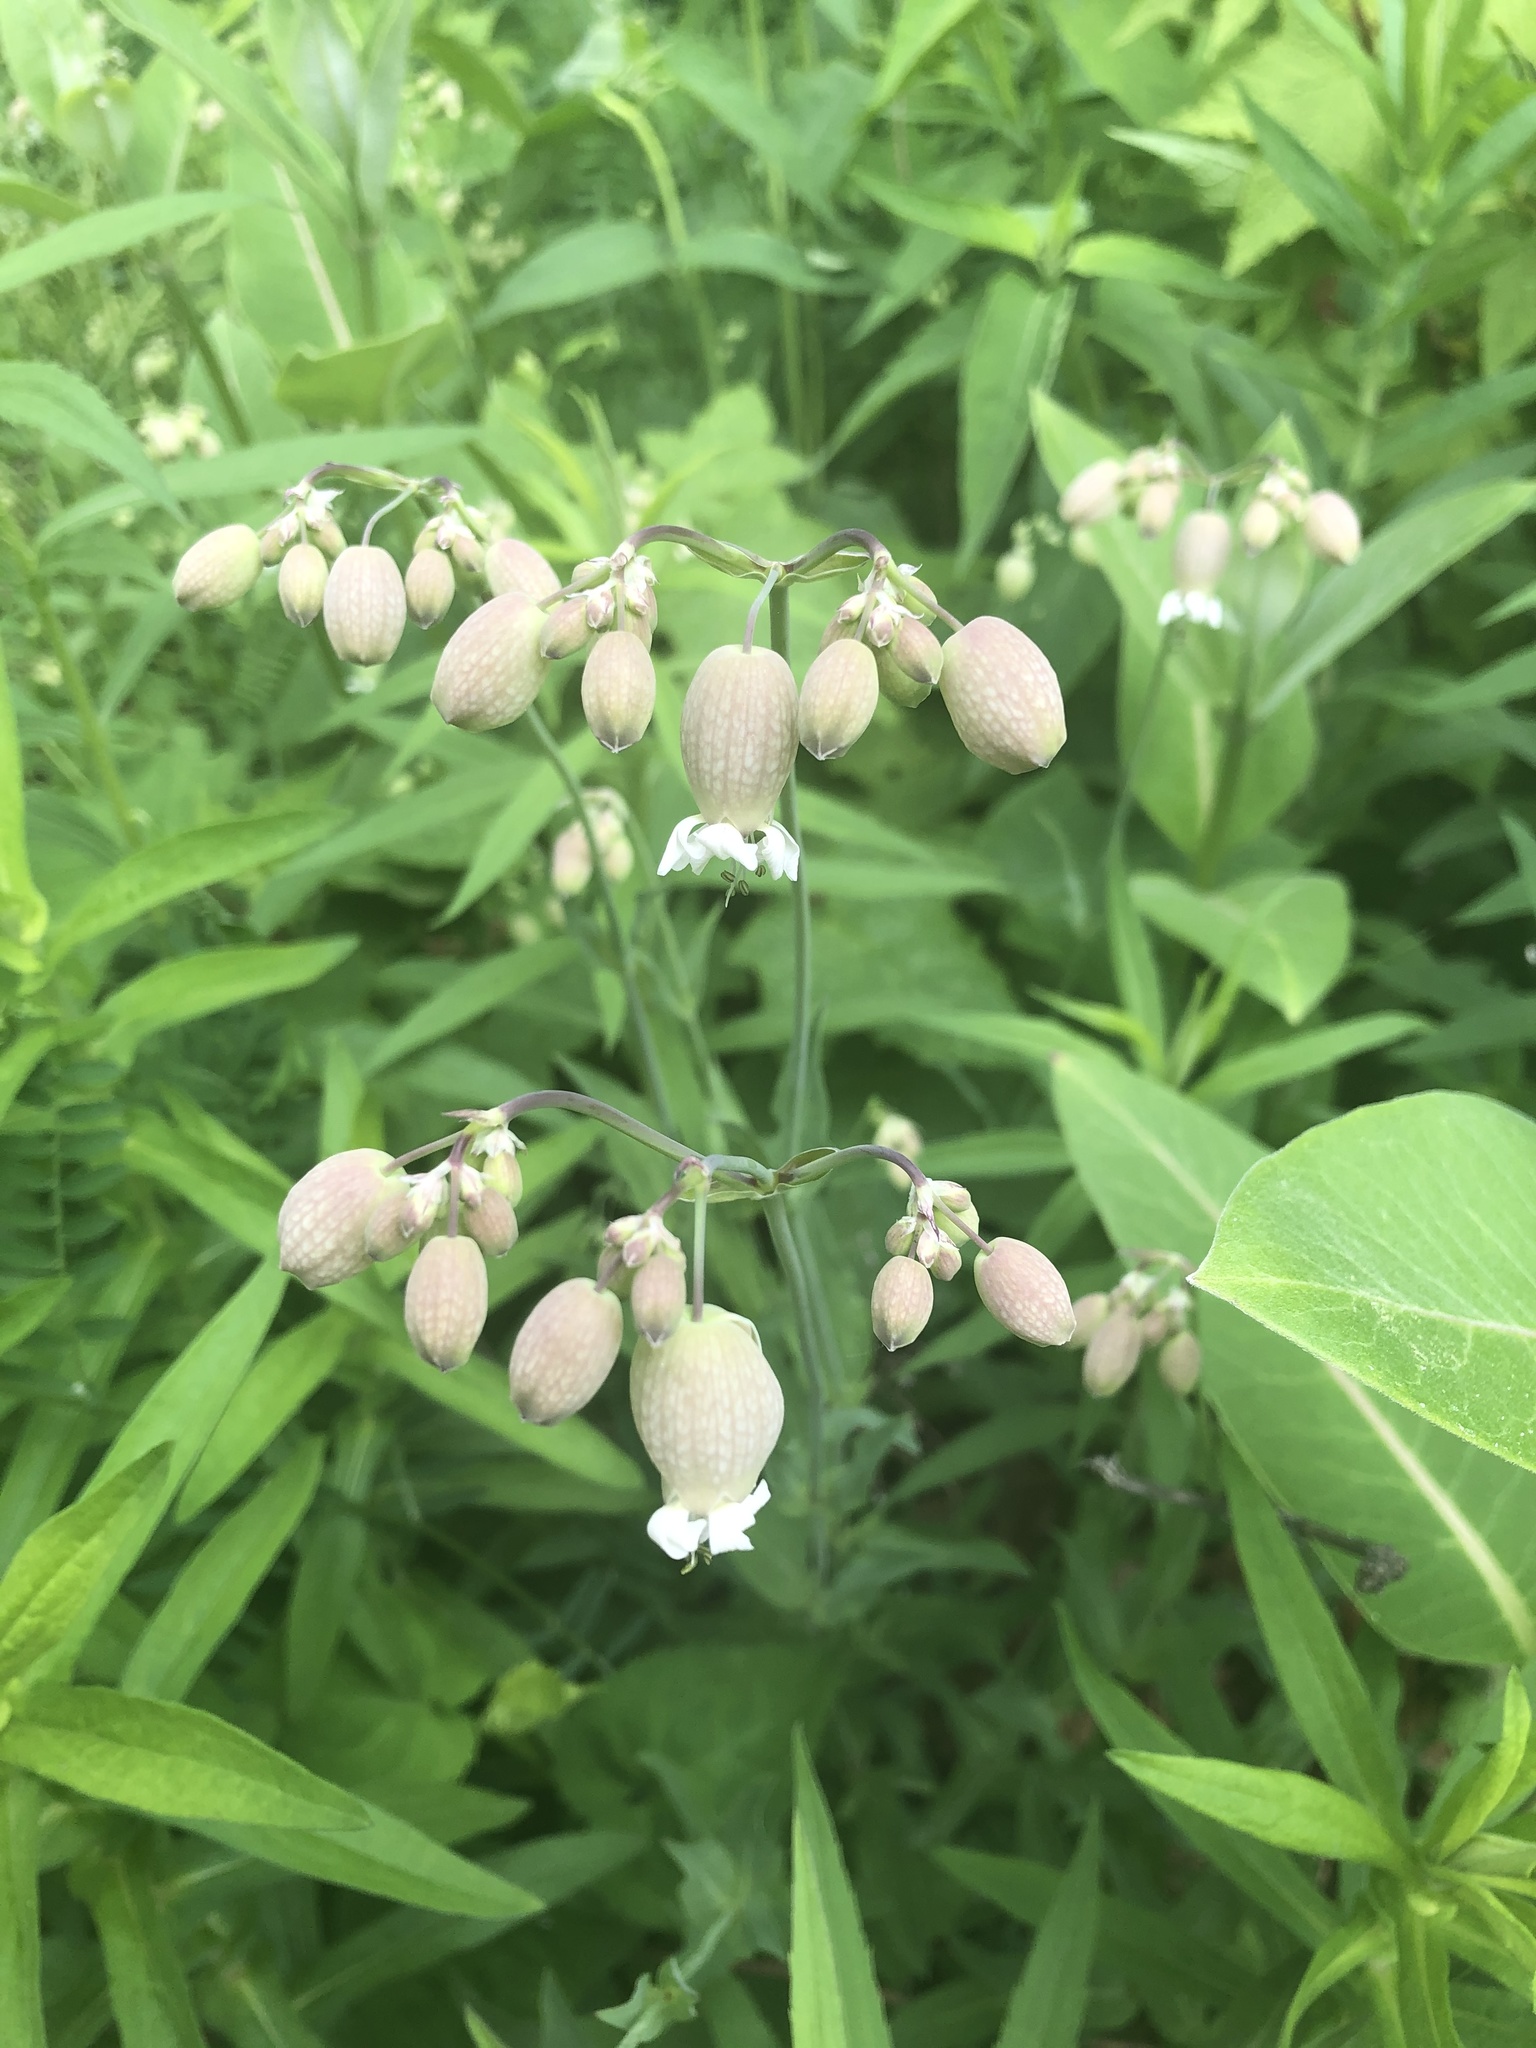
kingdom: Plantae
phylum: Tracheophyta
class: Magnoliopsida
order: Caryophyllales
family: Caryophyllaceae
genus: Silene
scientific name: Silene vulgaris
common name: Bladder campion
